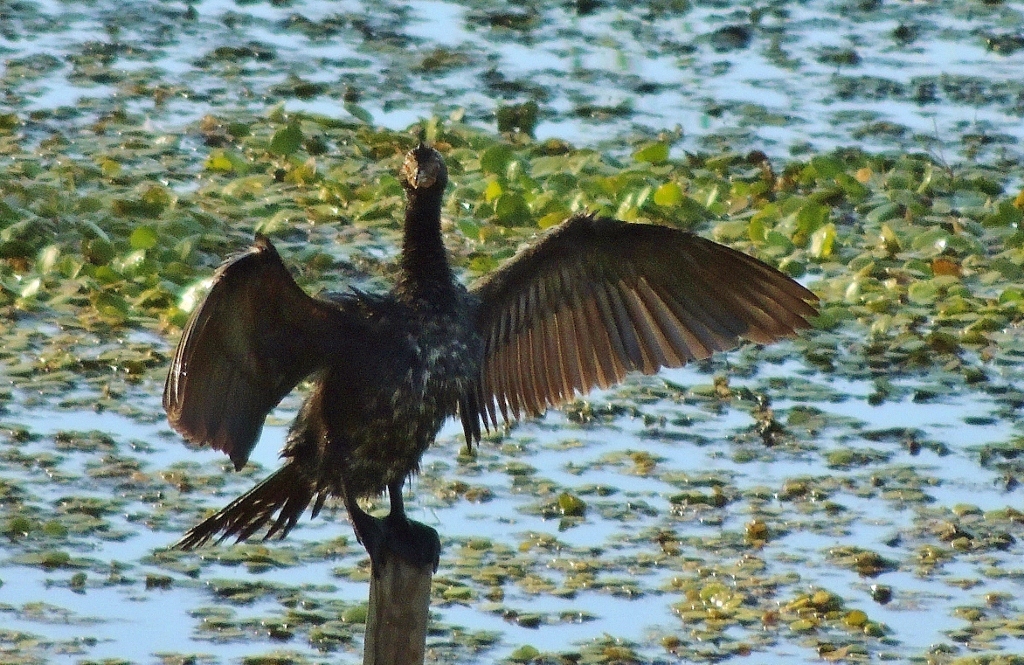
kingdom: Animalia
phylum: Chordata
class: Aves
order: Suliformes
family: Phalacrocoracidae
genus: Microcarbo
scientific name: Microcarbo africanus
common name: Long-tailed cormorant
